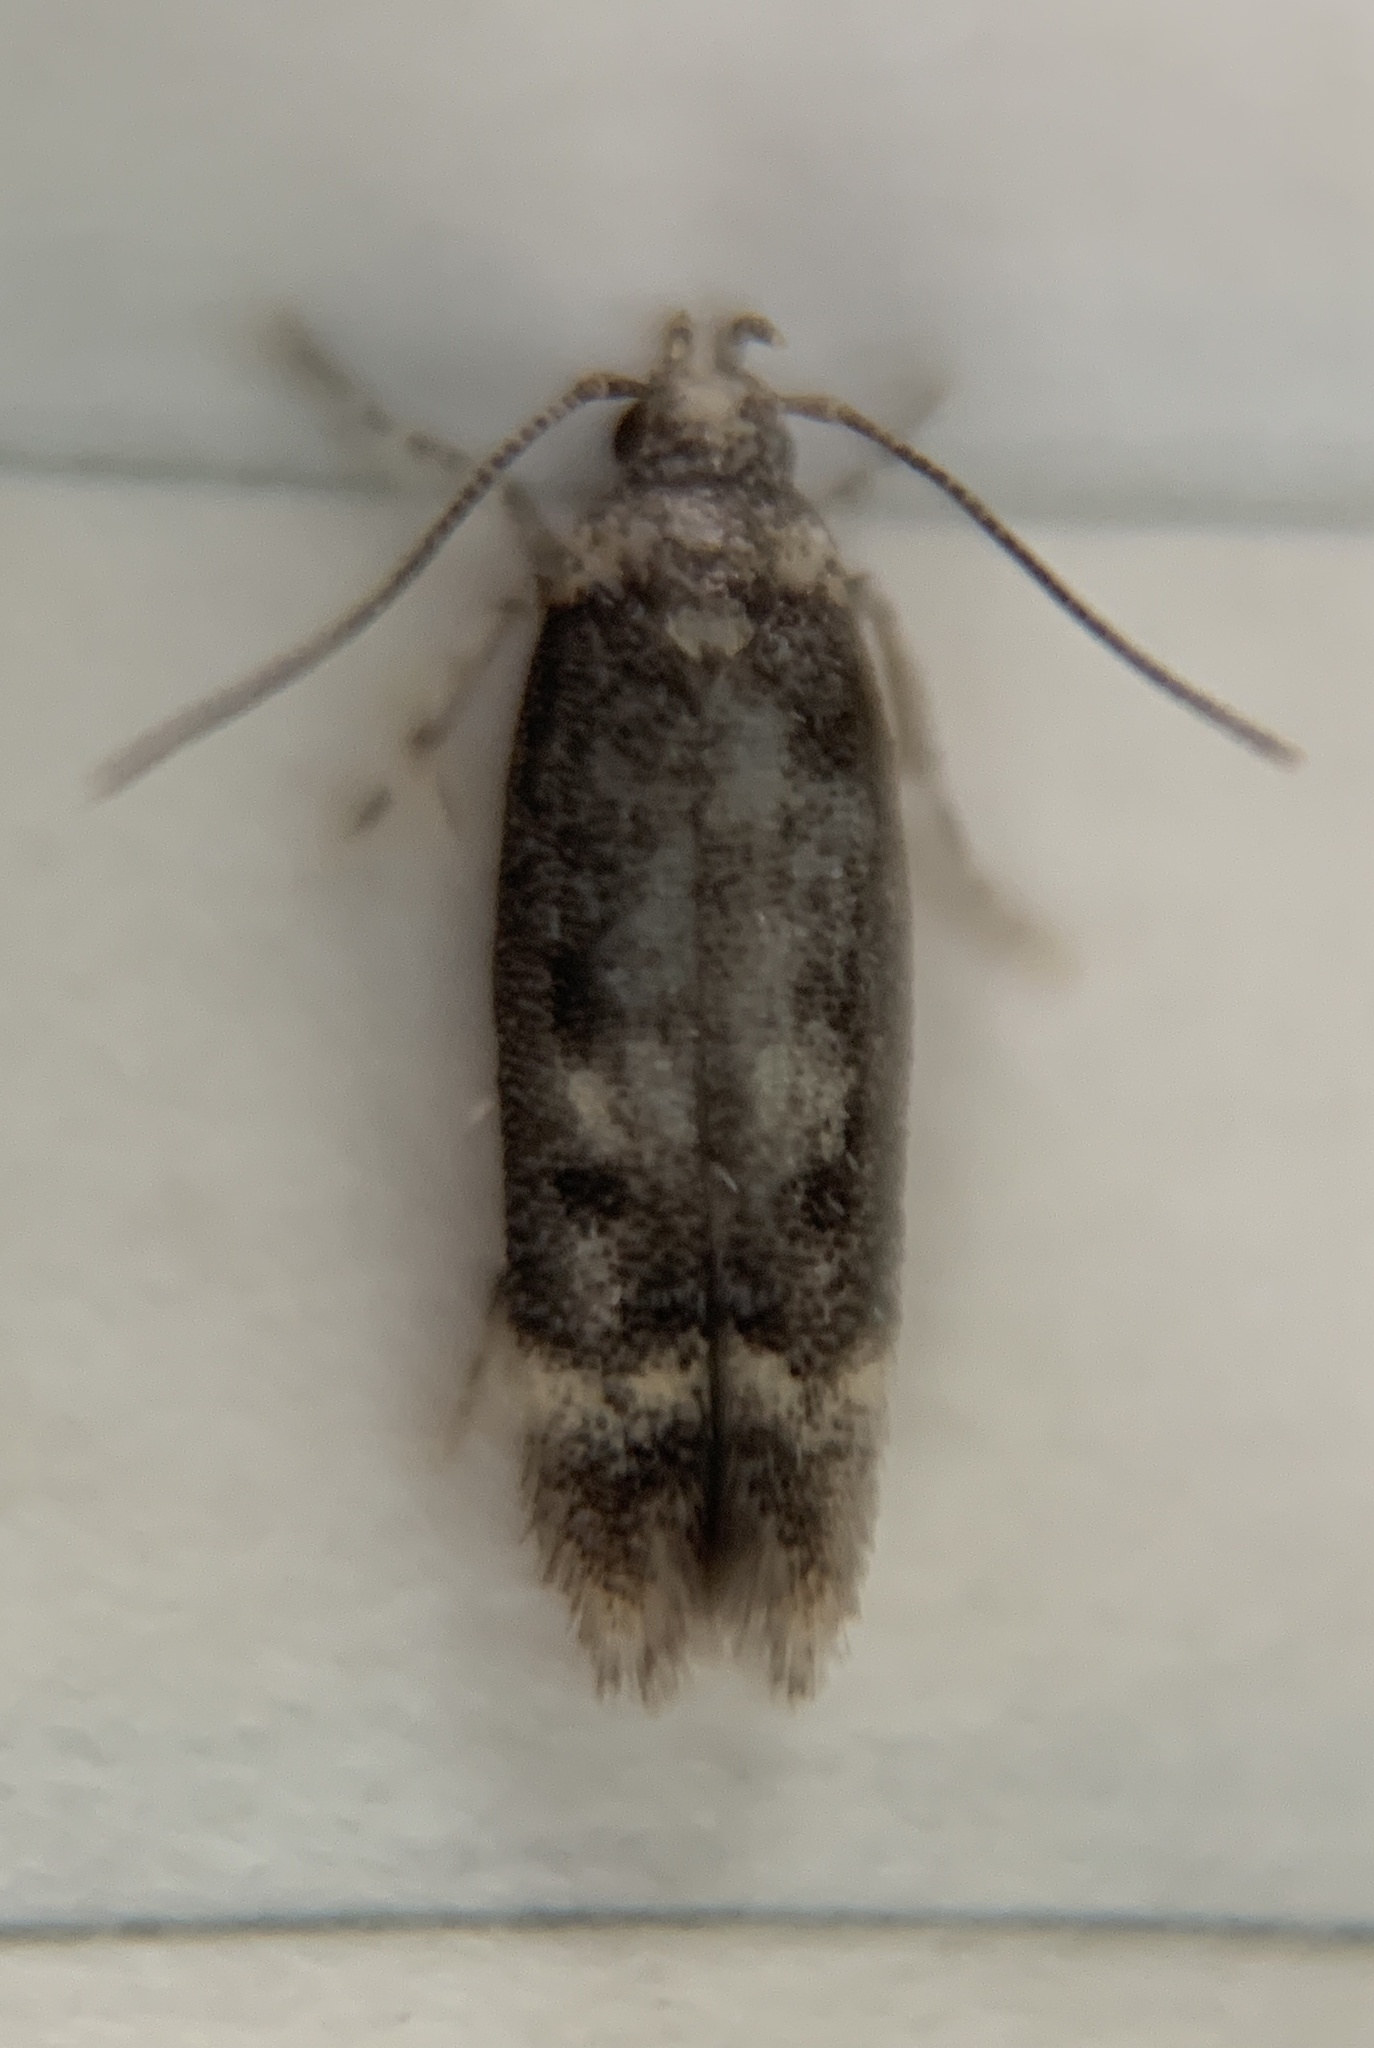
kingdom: Animalia
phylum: Arthropoda
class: Insecta
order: Lepidoptera
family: Gelechiidae
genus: Trypanisma
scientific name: Trypanisma prudens
